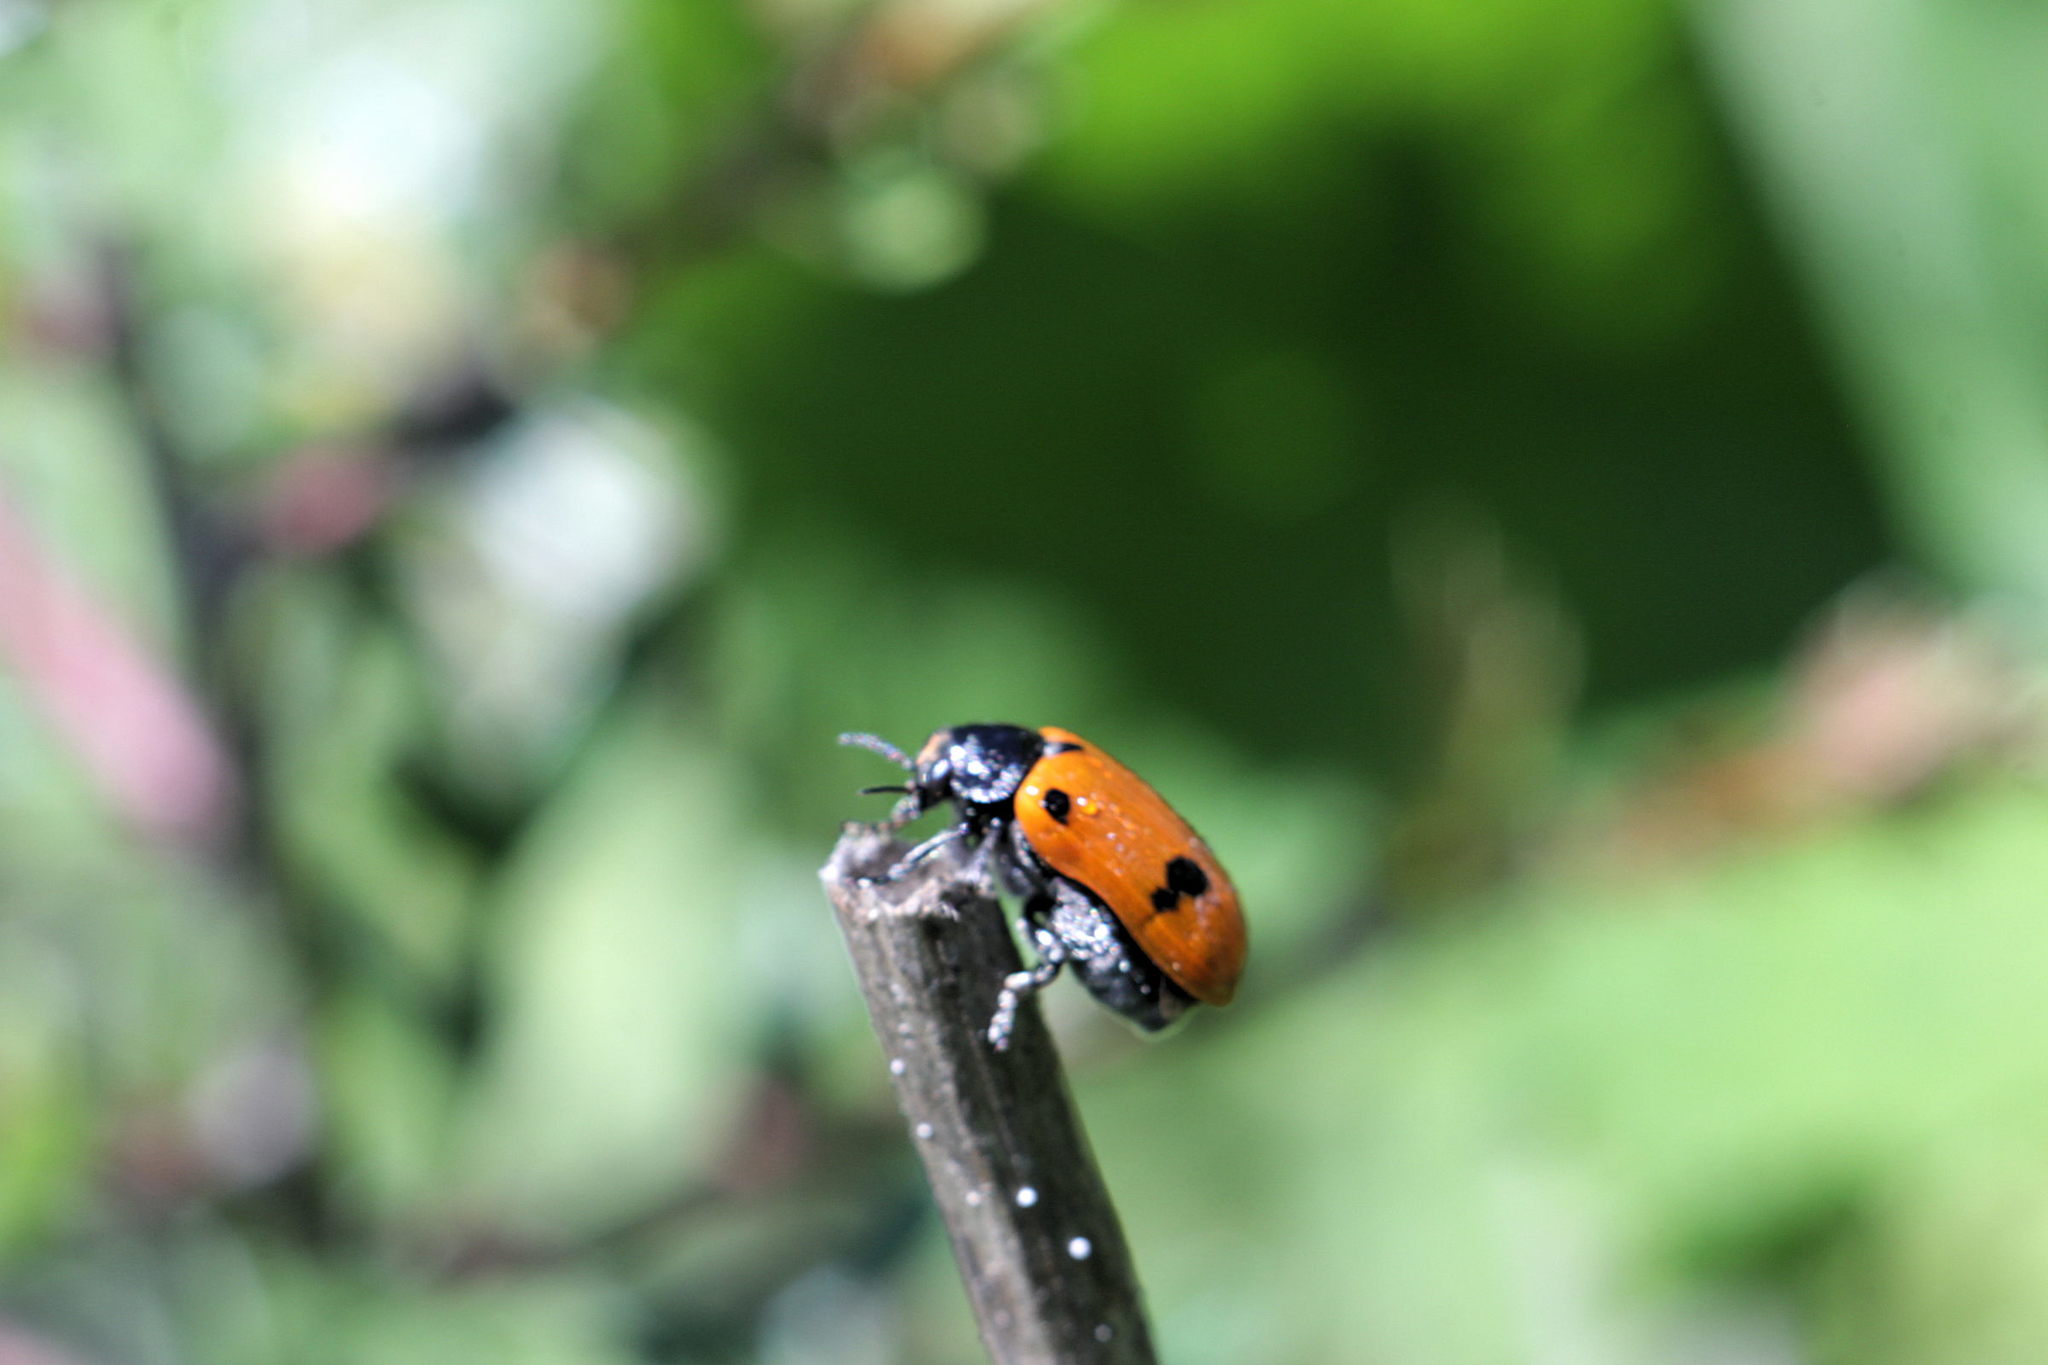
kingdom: Animalia
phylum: Arthropoda
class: Insecta
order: Coleoptera
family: Chrysomelidae
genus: Clytra
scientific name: Clytra quadripunctata
